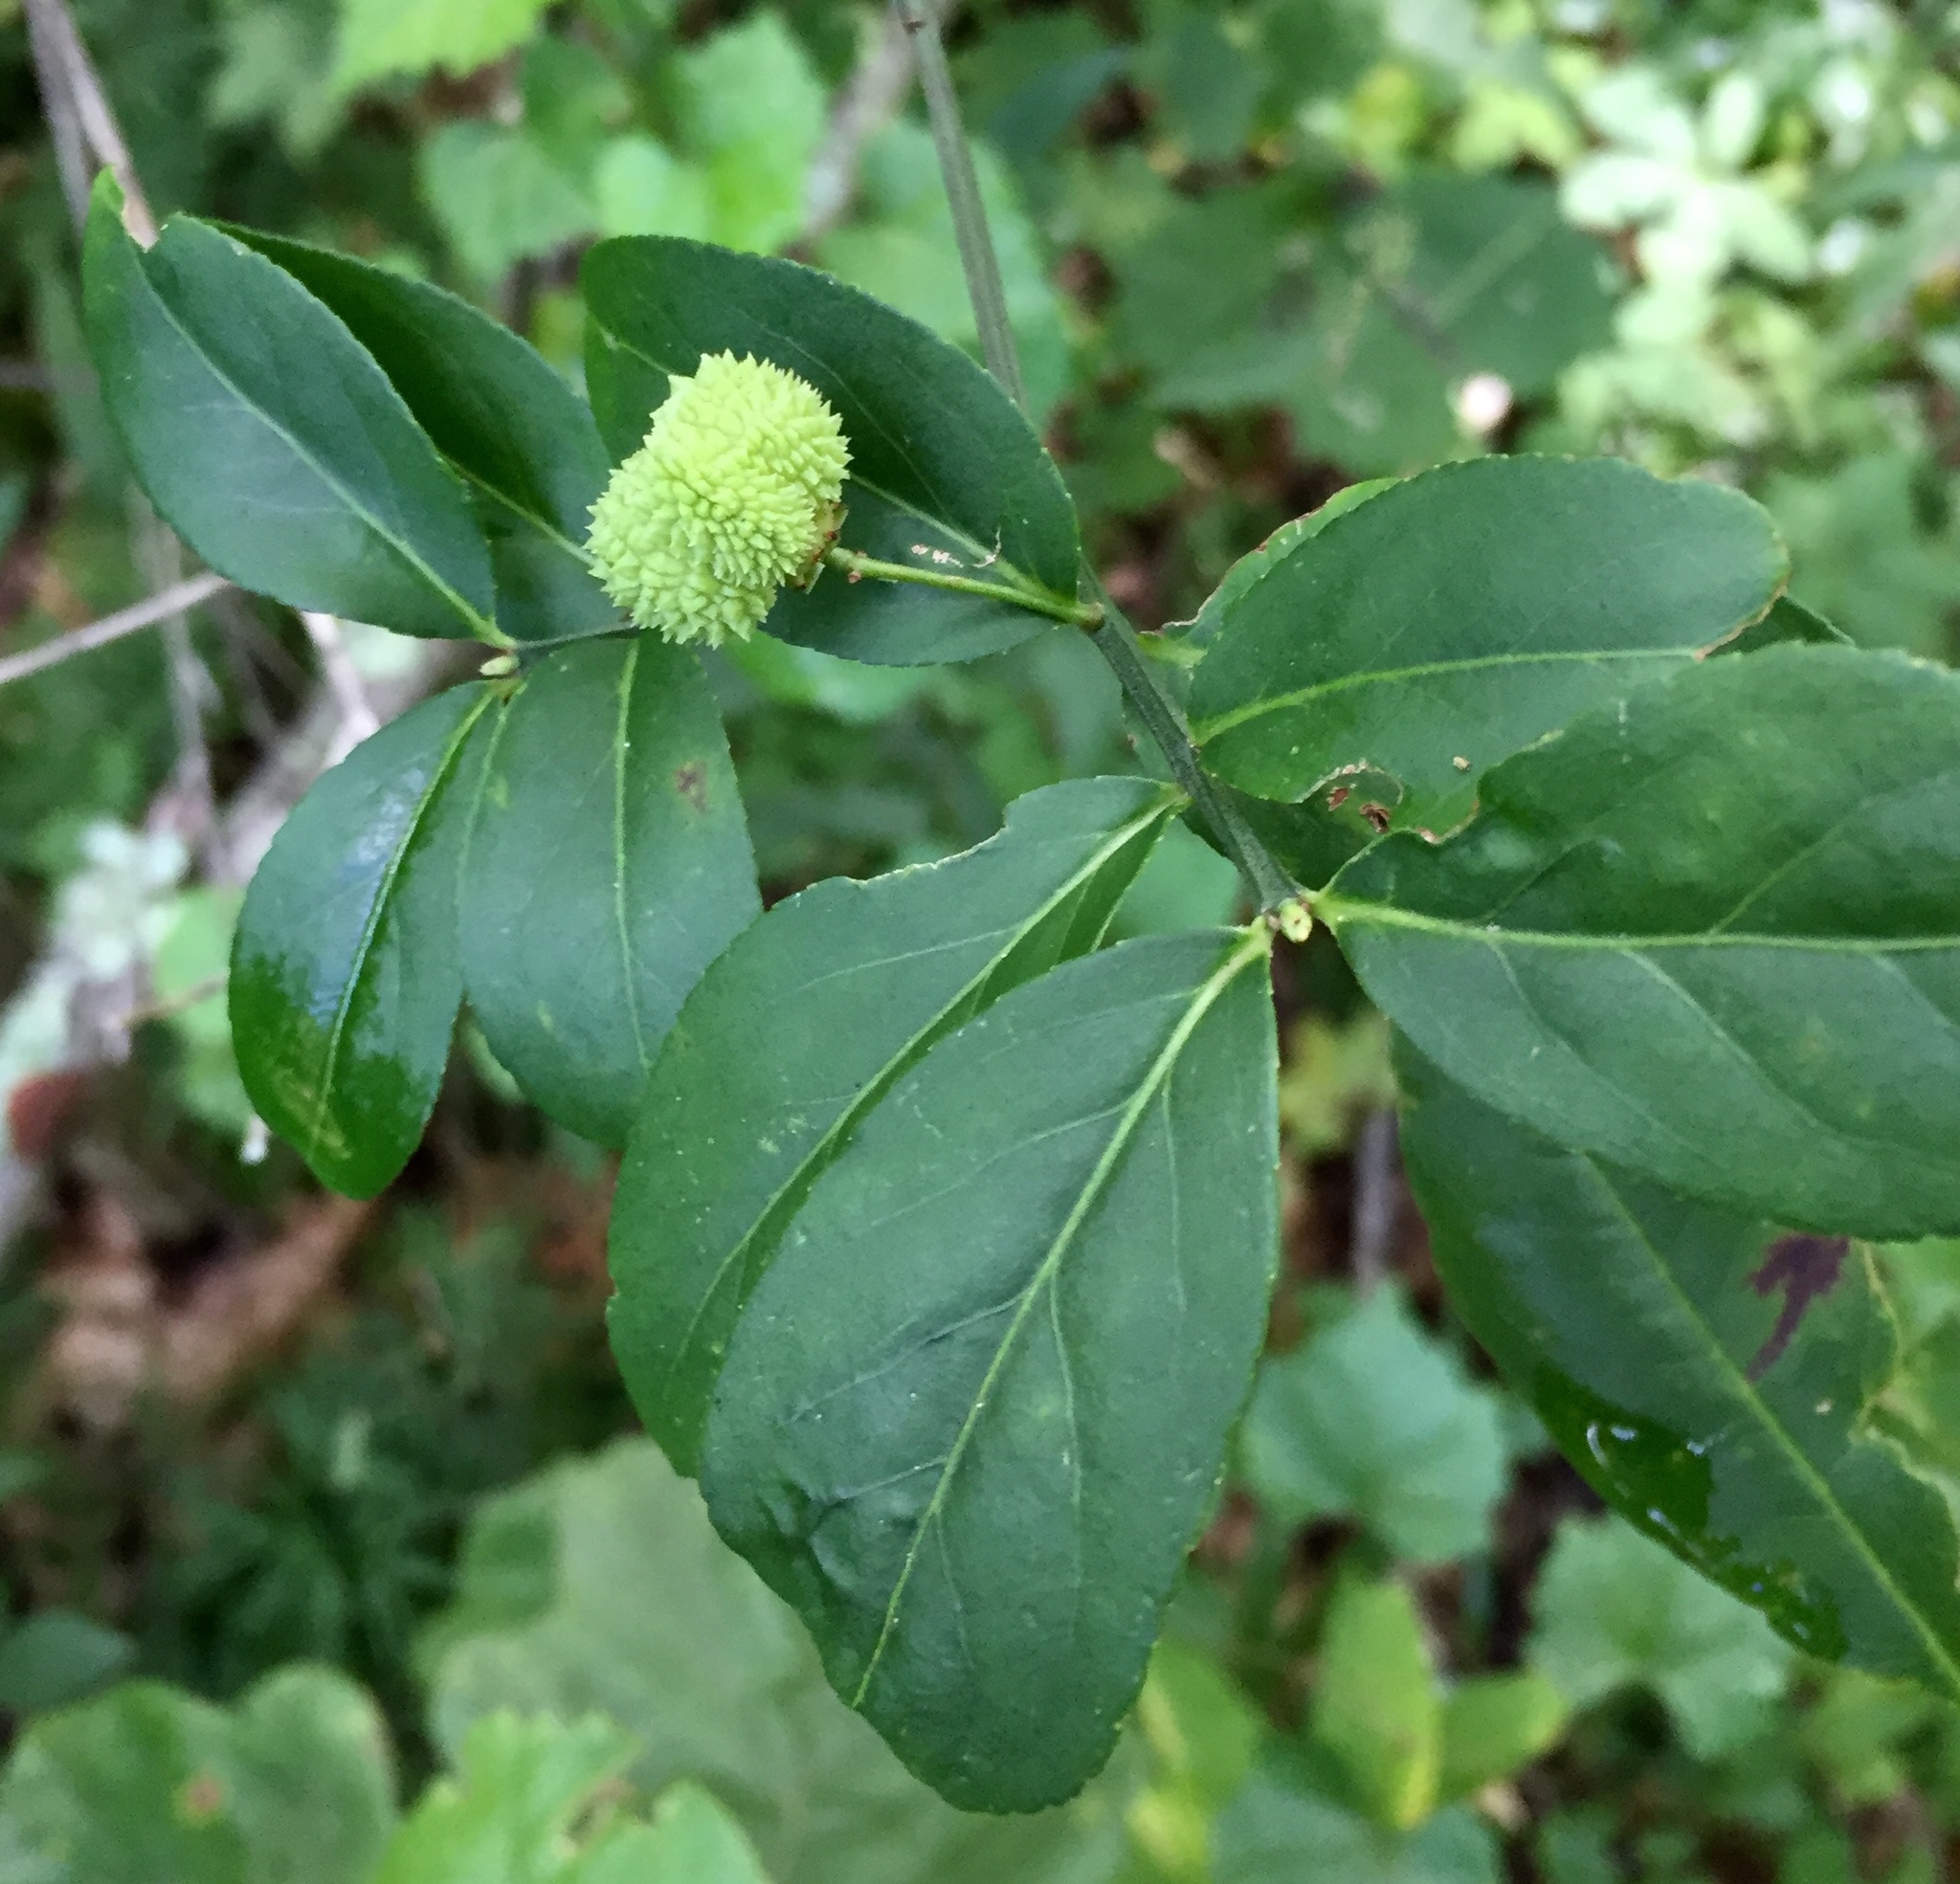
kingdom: Plantae
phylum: Tracheophyta
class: Magnoliopsida
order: Celastrales
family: Celastraceae
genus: Euonymus
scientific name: Euonymus americanus
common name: Bursting-heart
